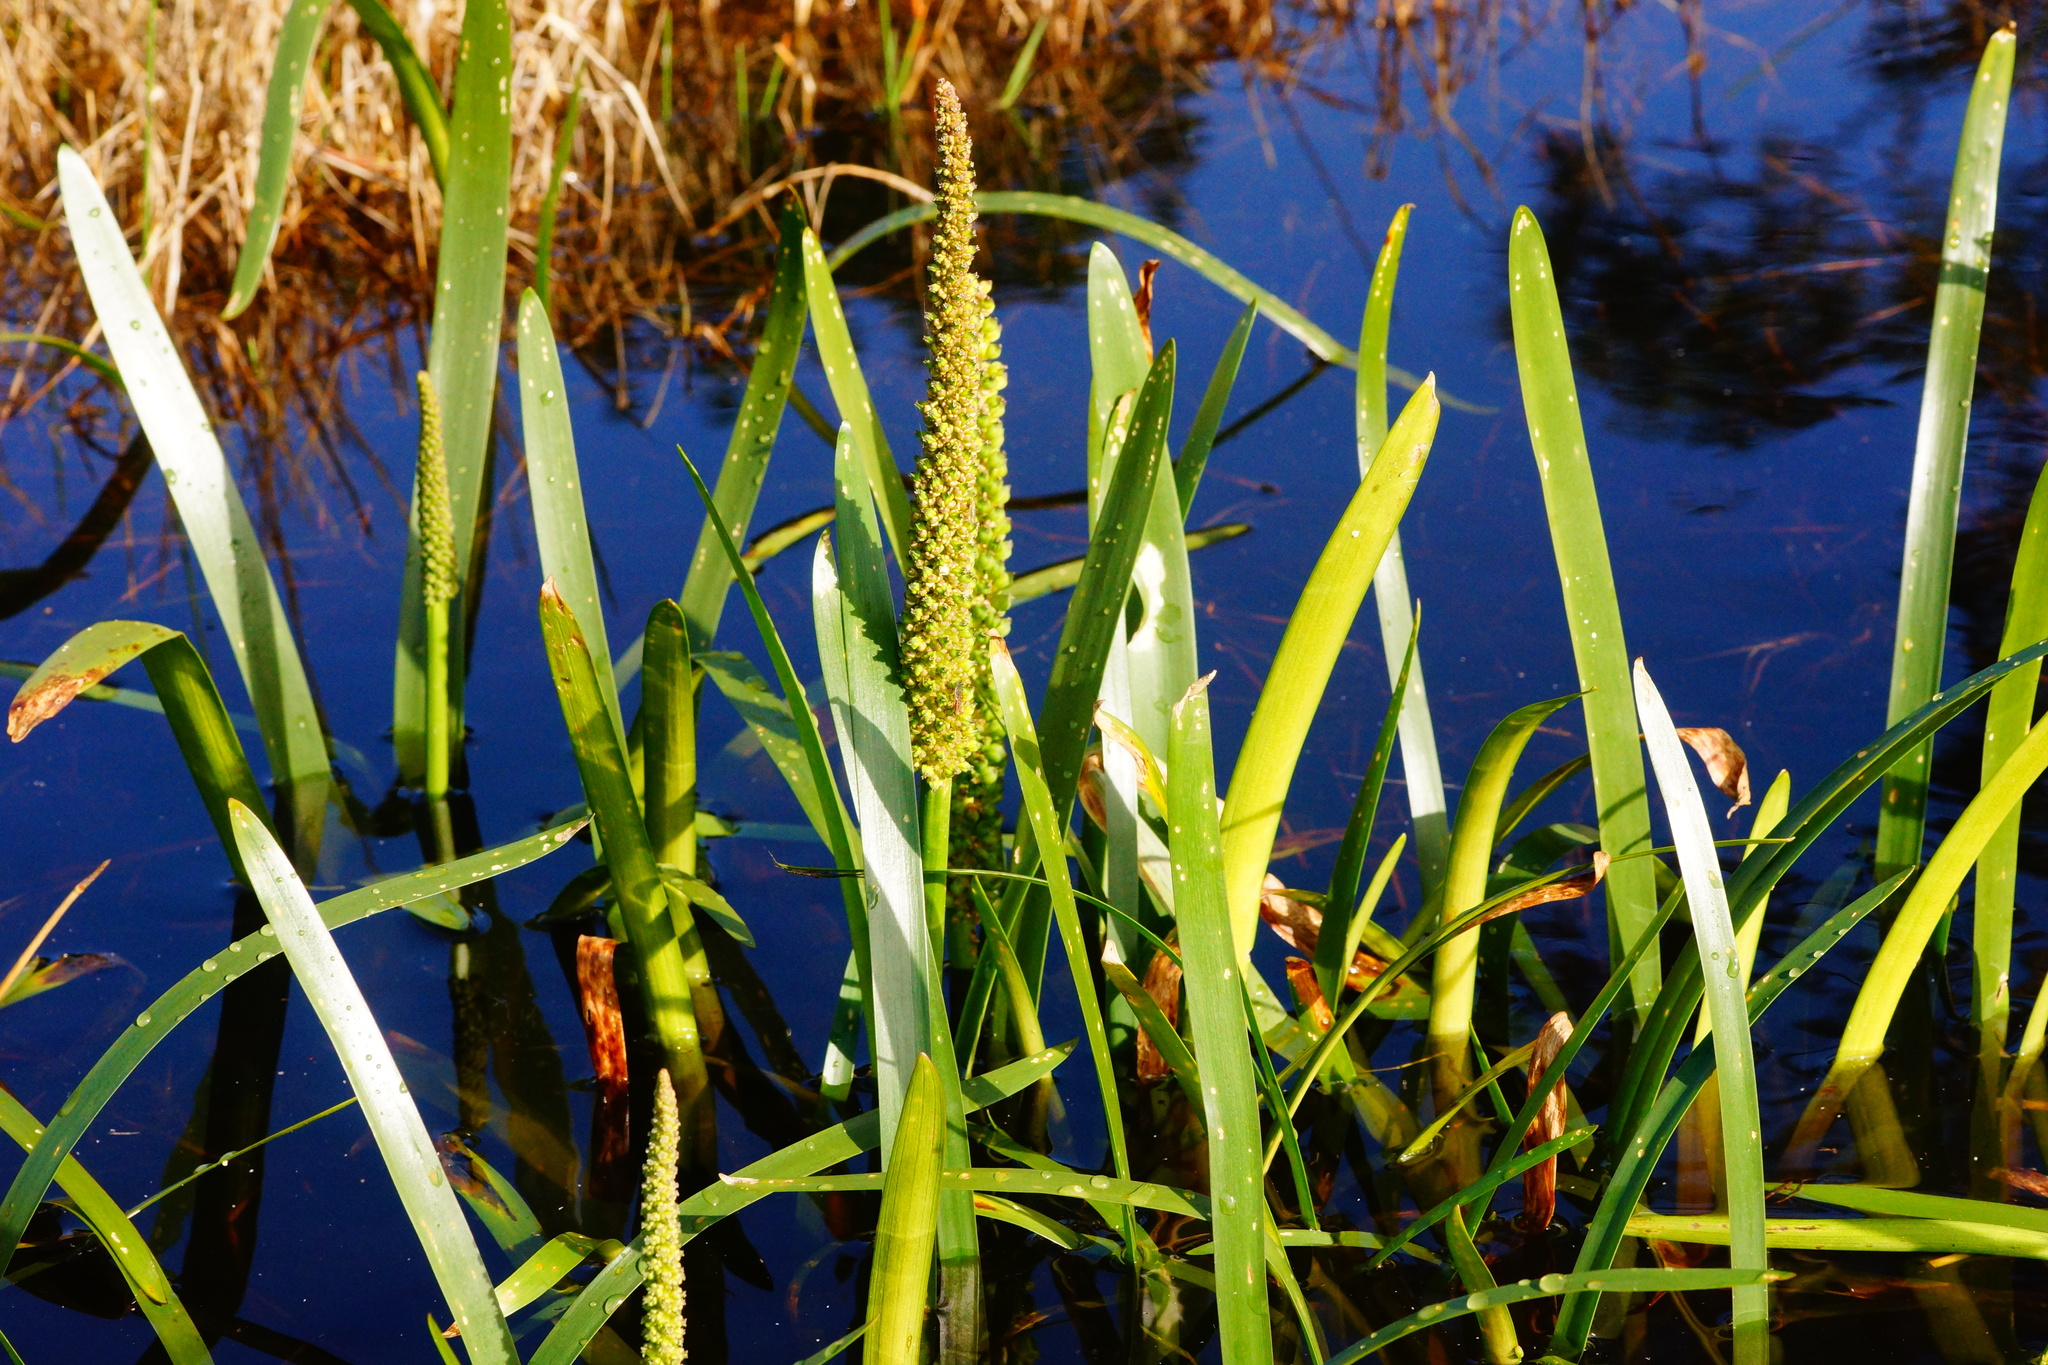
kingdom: Plantae
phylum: Tracheophyta
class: Liliopsida
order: Alismatales
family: Juncaginaceae
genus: Cycnogeton
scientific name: Cycnogeton procerum
